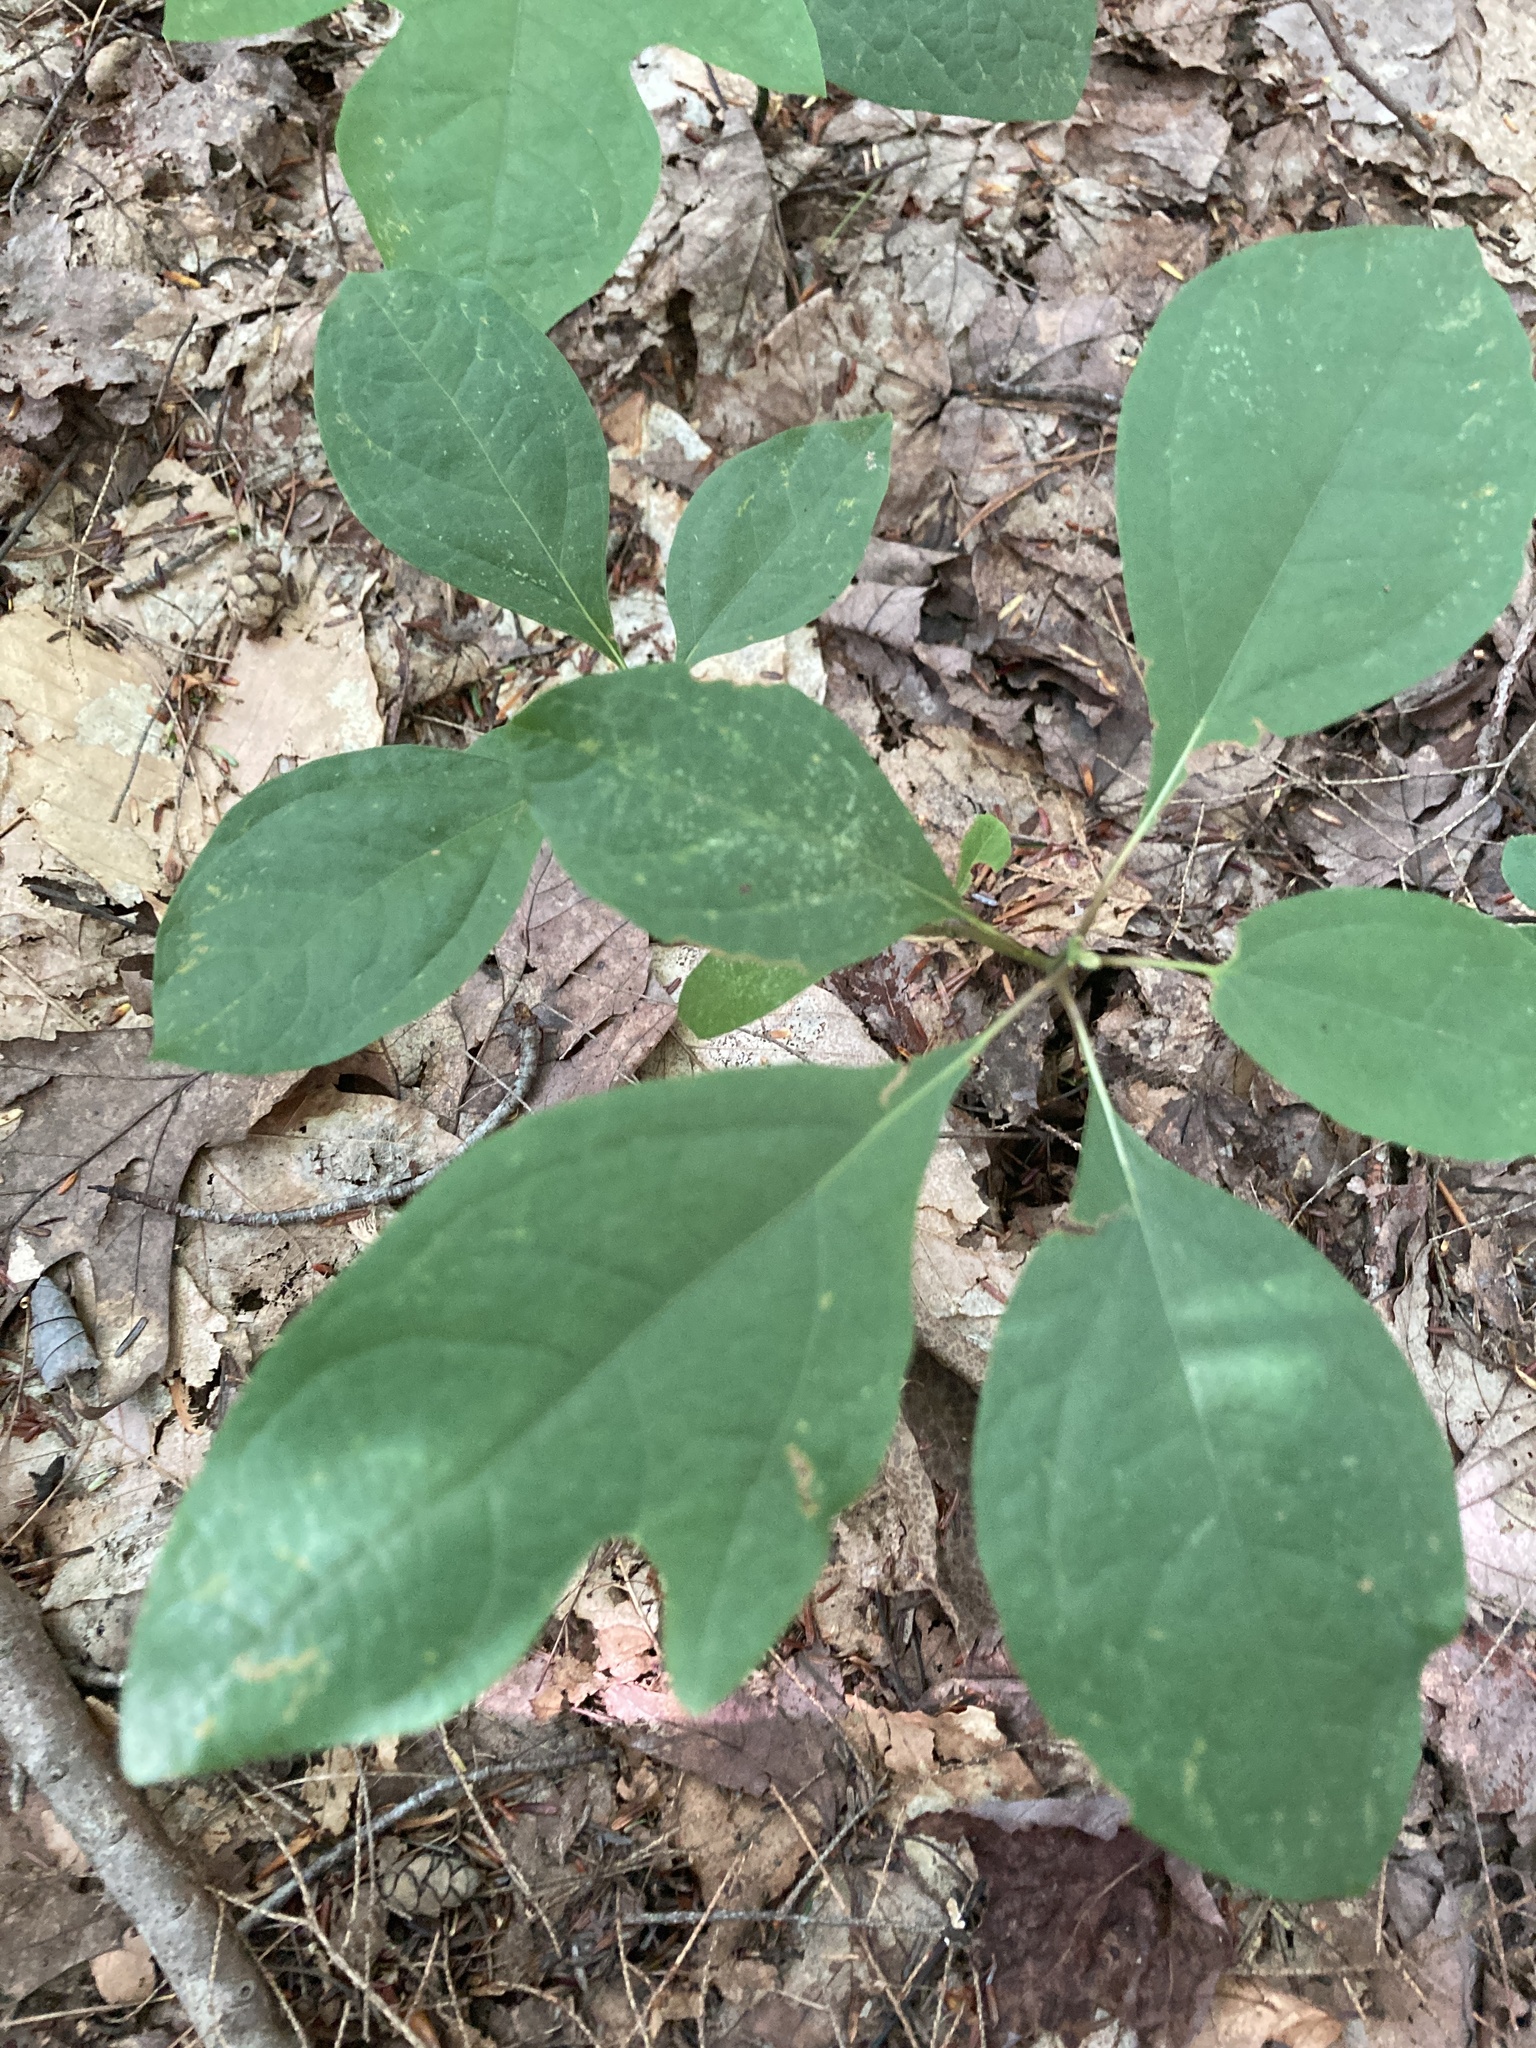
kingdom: Plantae
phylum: Tracheophyta
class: Magnoliopsida
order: Laurales
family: Lauraceae
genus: Sassafras
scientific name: Sassafras albidum
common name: Sassafras
